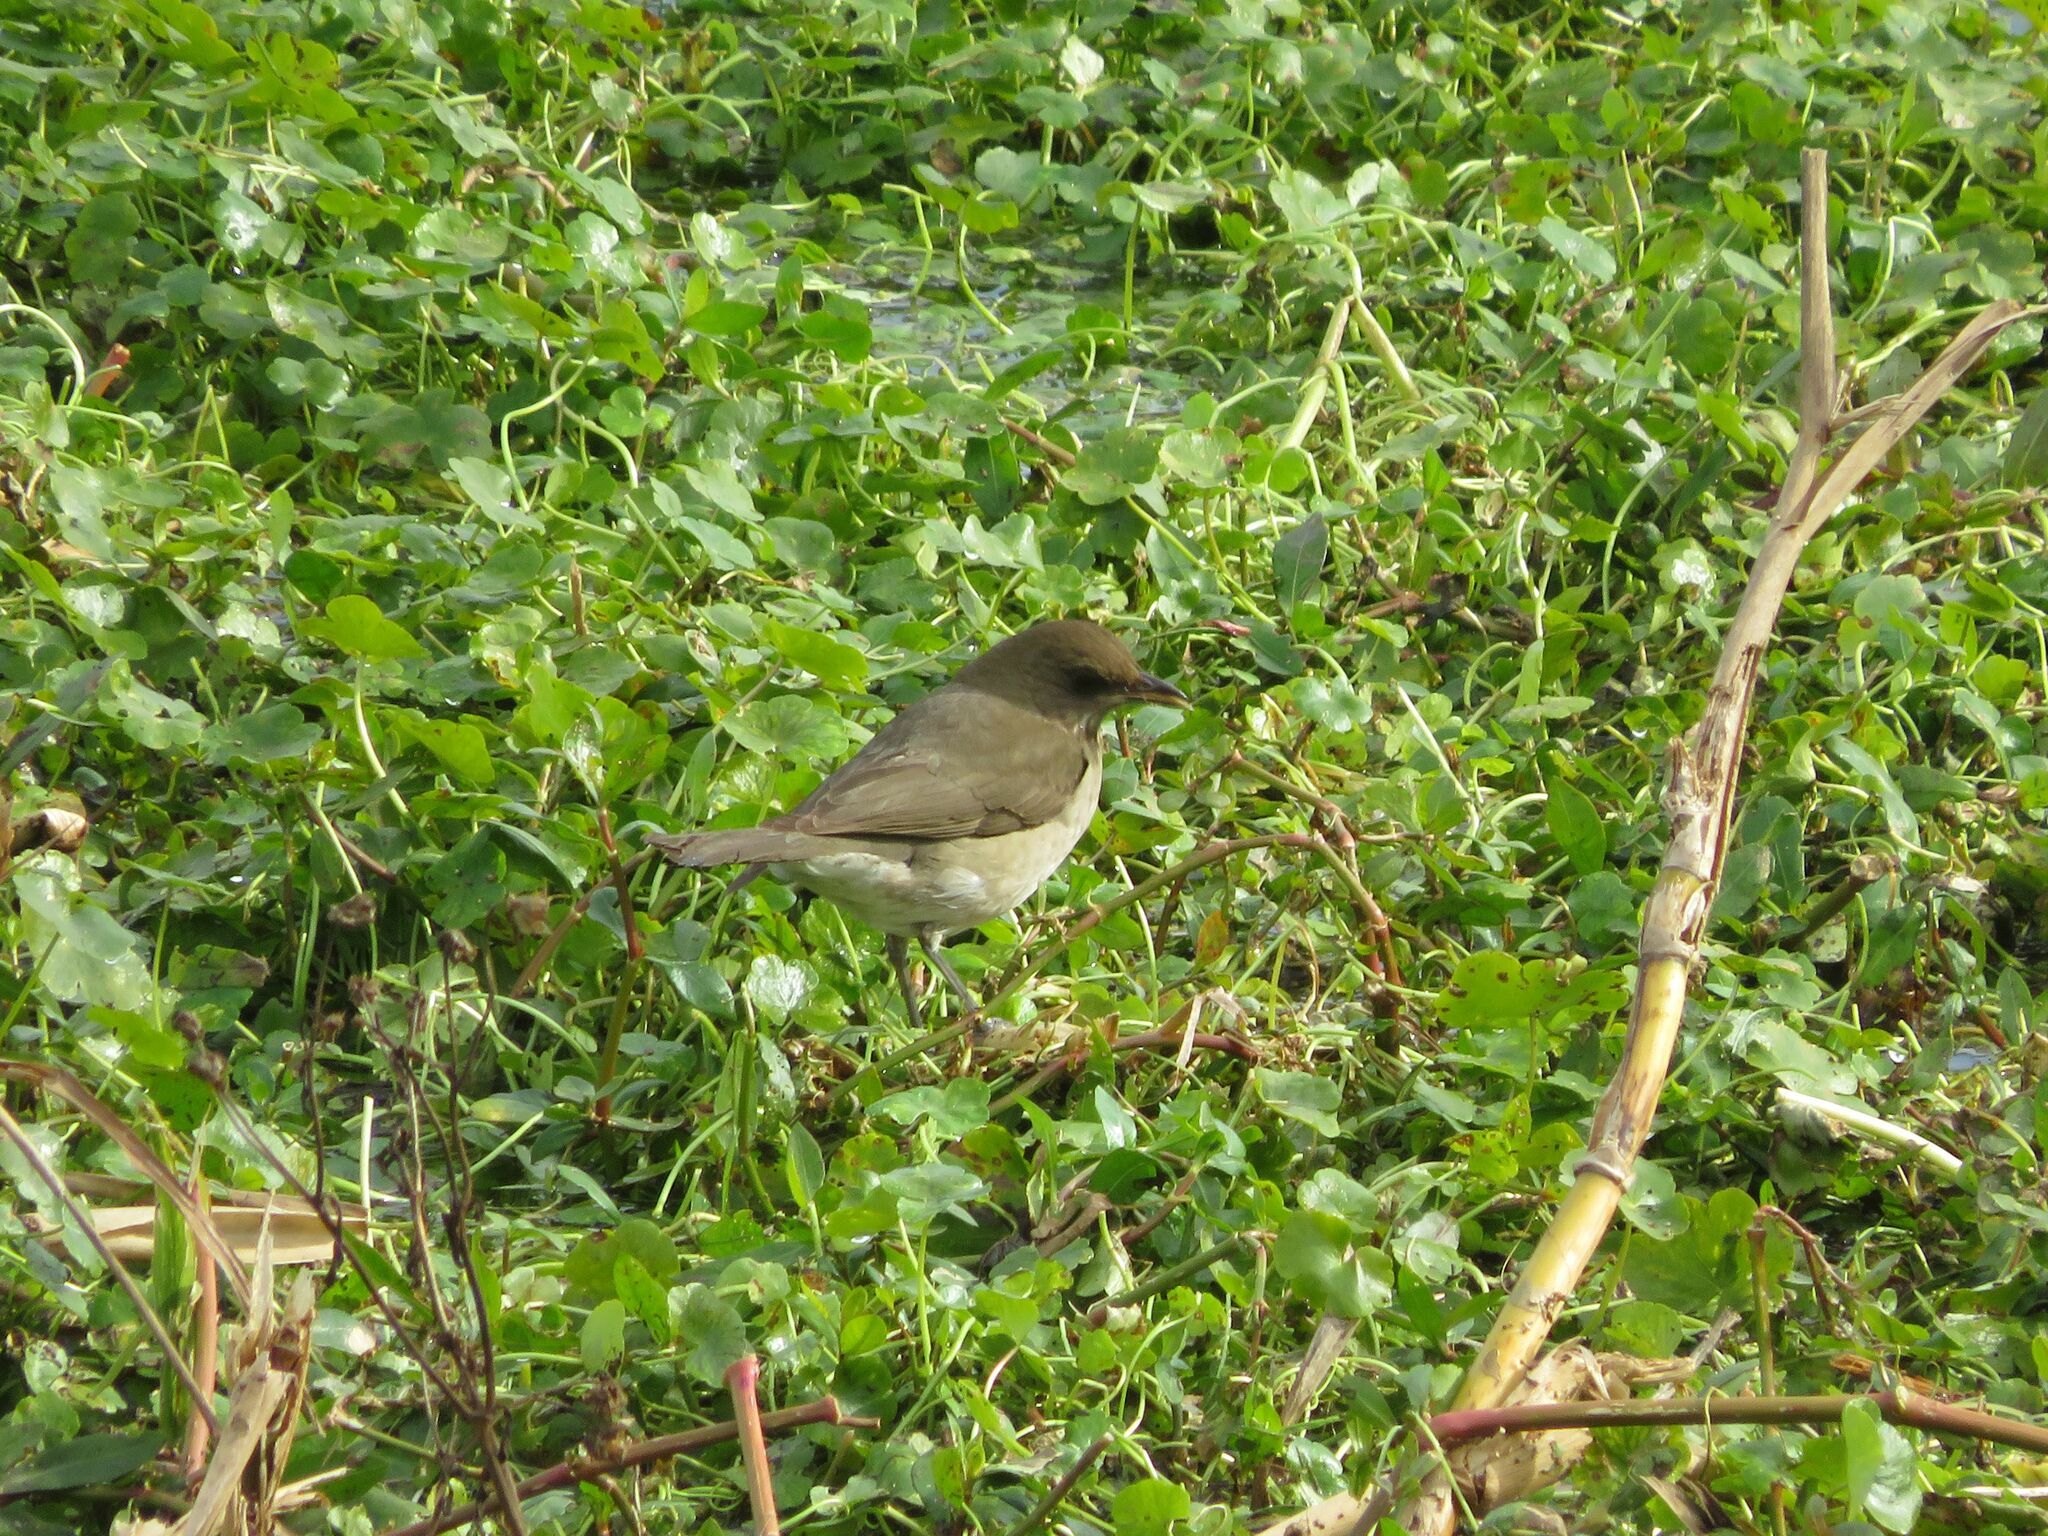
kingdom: Animalia
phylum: Chordata
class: Aves
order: Passeriformes
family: Turdidae
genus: Turdus
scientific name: Turdus amaurochalinus
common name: Creamy-bellied thrush
